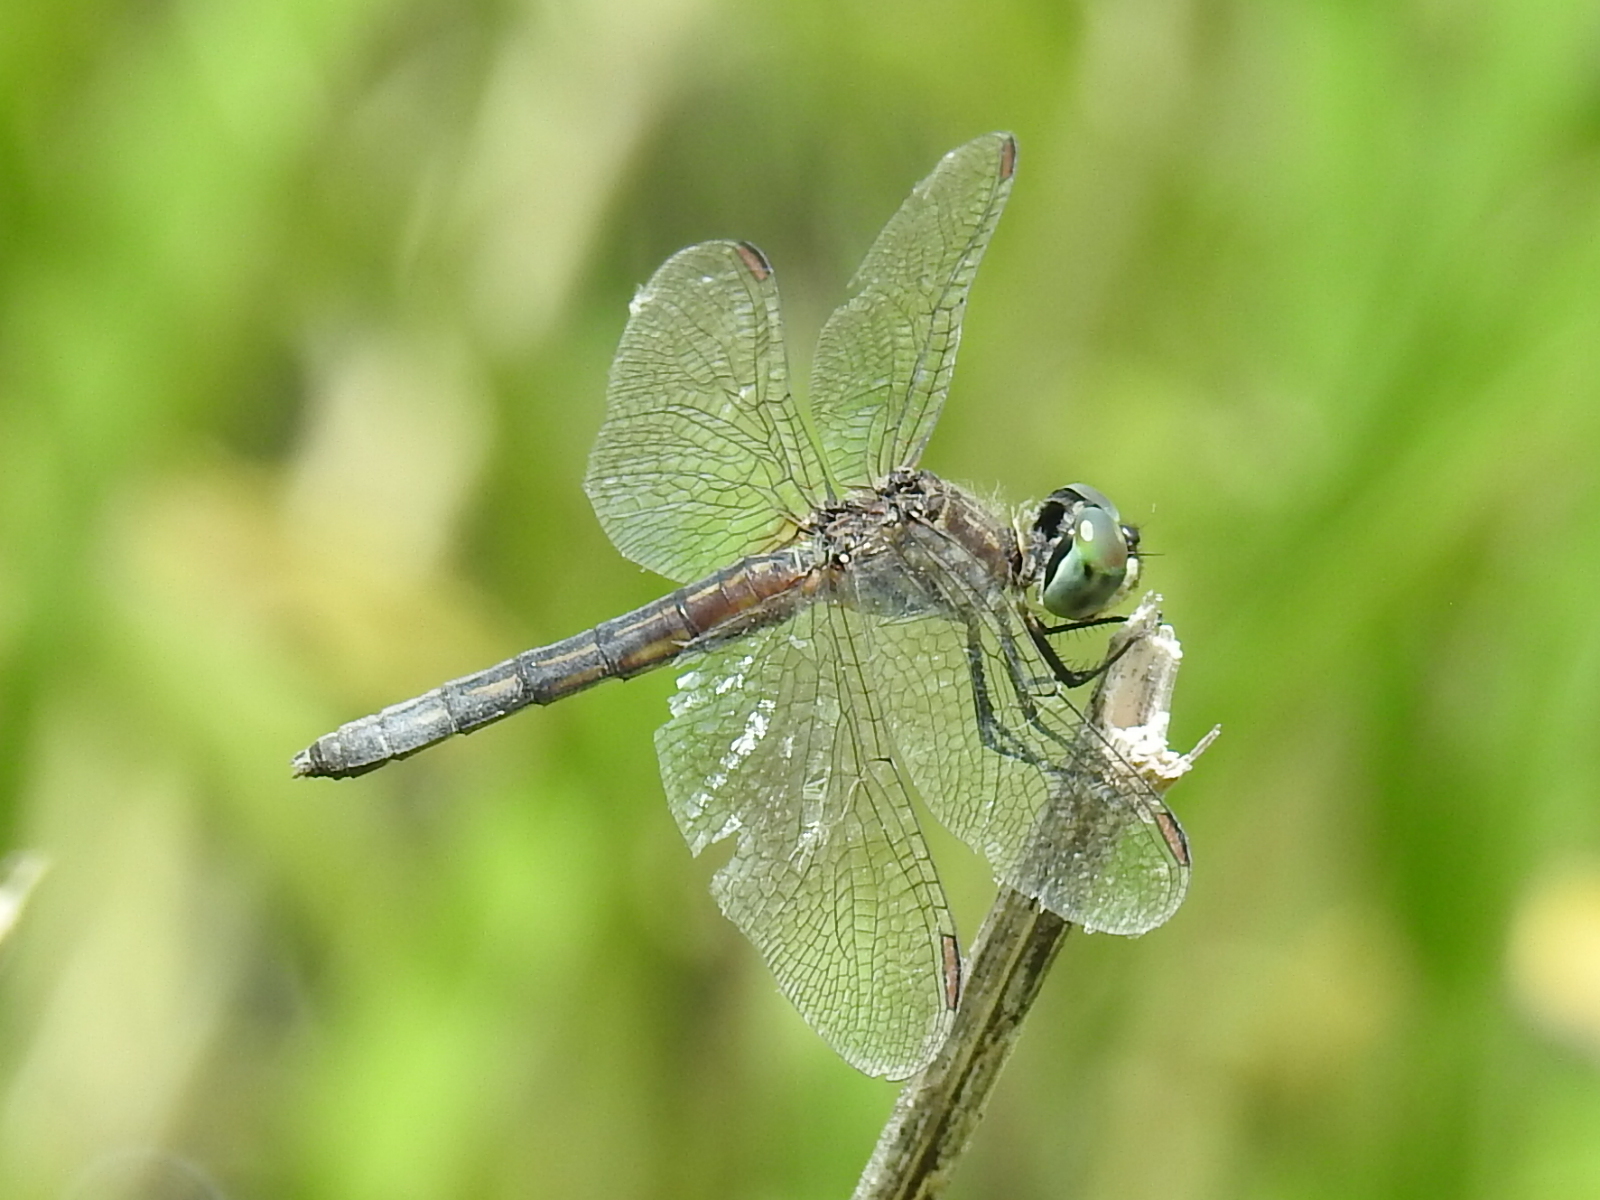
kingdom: Animalia
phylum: Arthropoda
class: Insecta
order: Odonata
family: Libellulidae
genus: Pachydiplax
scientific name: Pachydiplax longipennis
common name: Blue dasher
